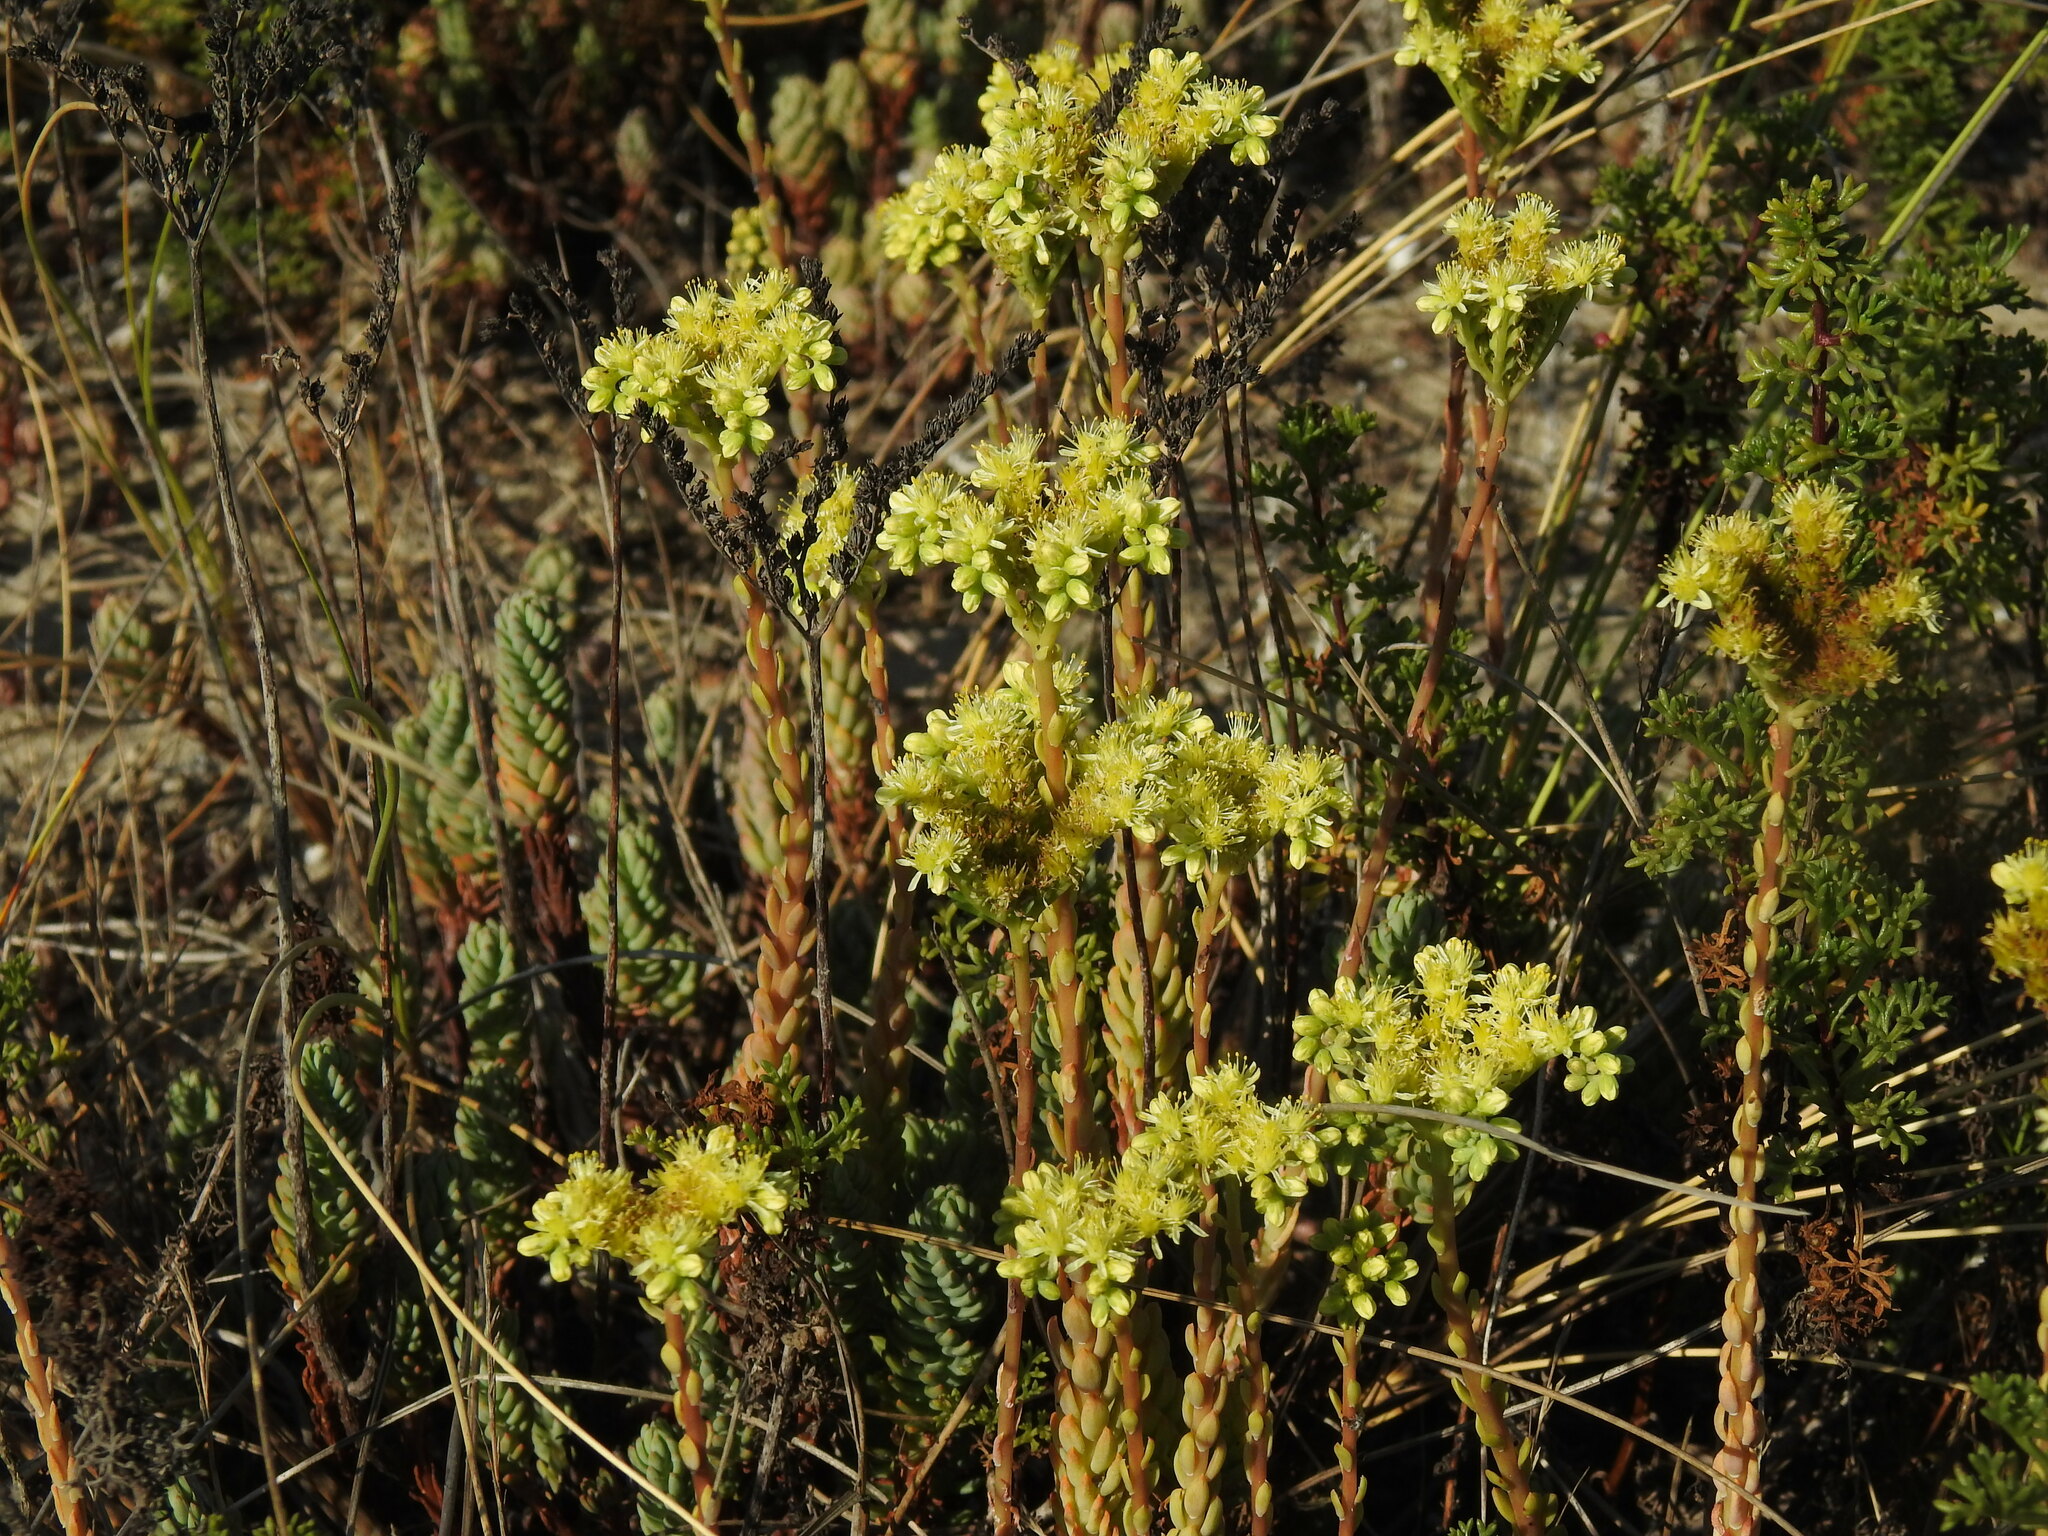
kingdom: Plantae
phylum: Tracheophyta
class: Magnoliopsida
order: Saxifragales
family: Crassulaceae
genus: Petrosedum
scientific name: Petrosedum sediforme
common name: Pale stonecrop
